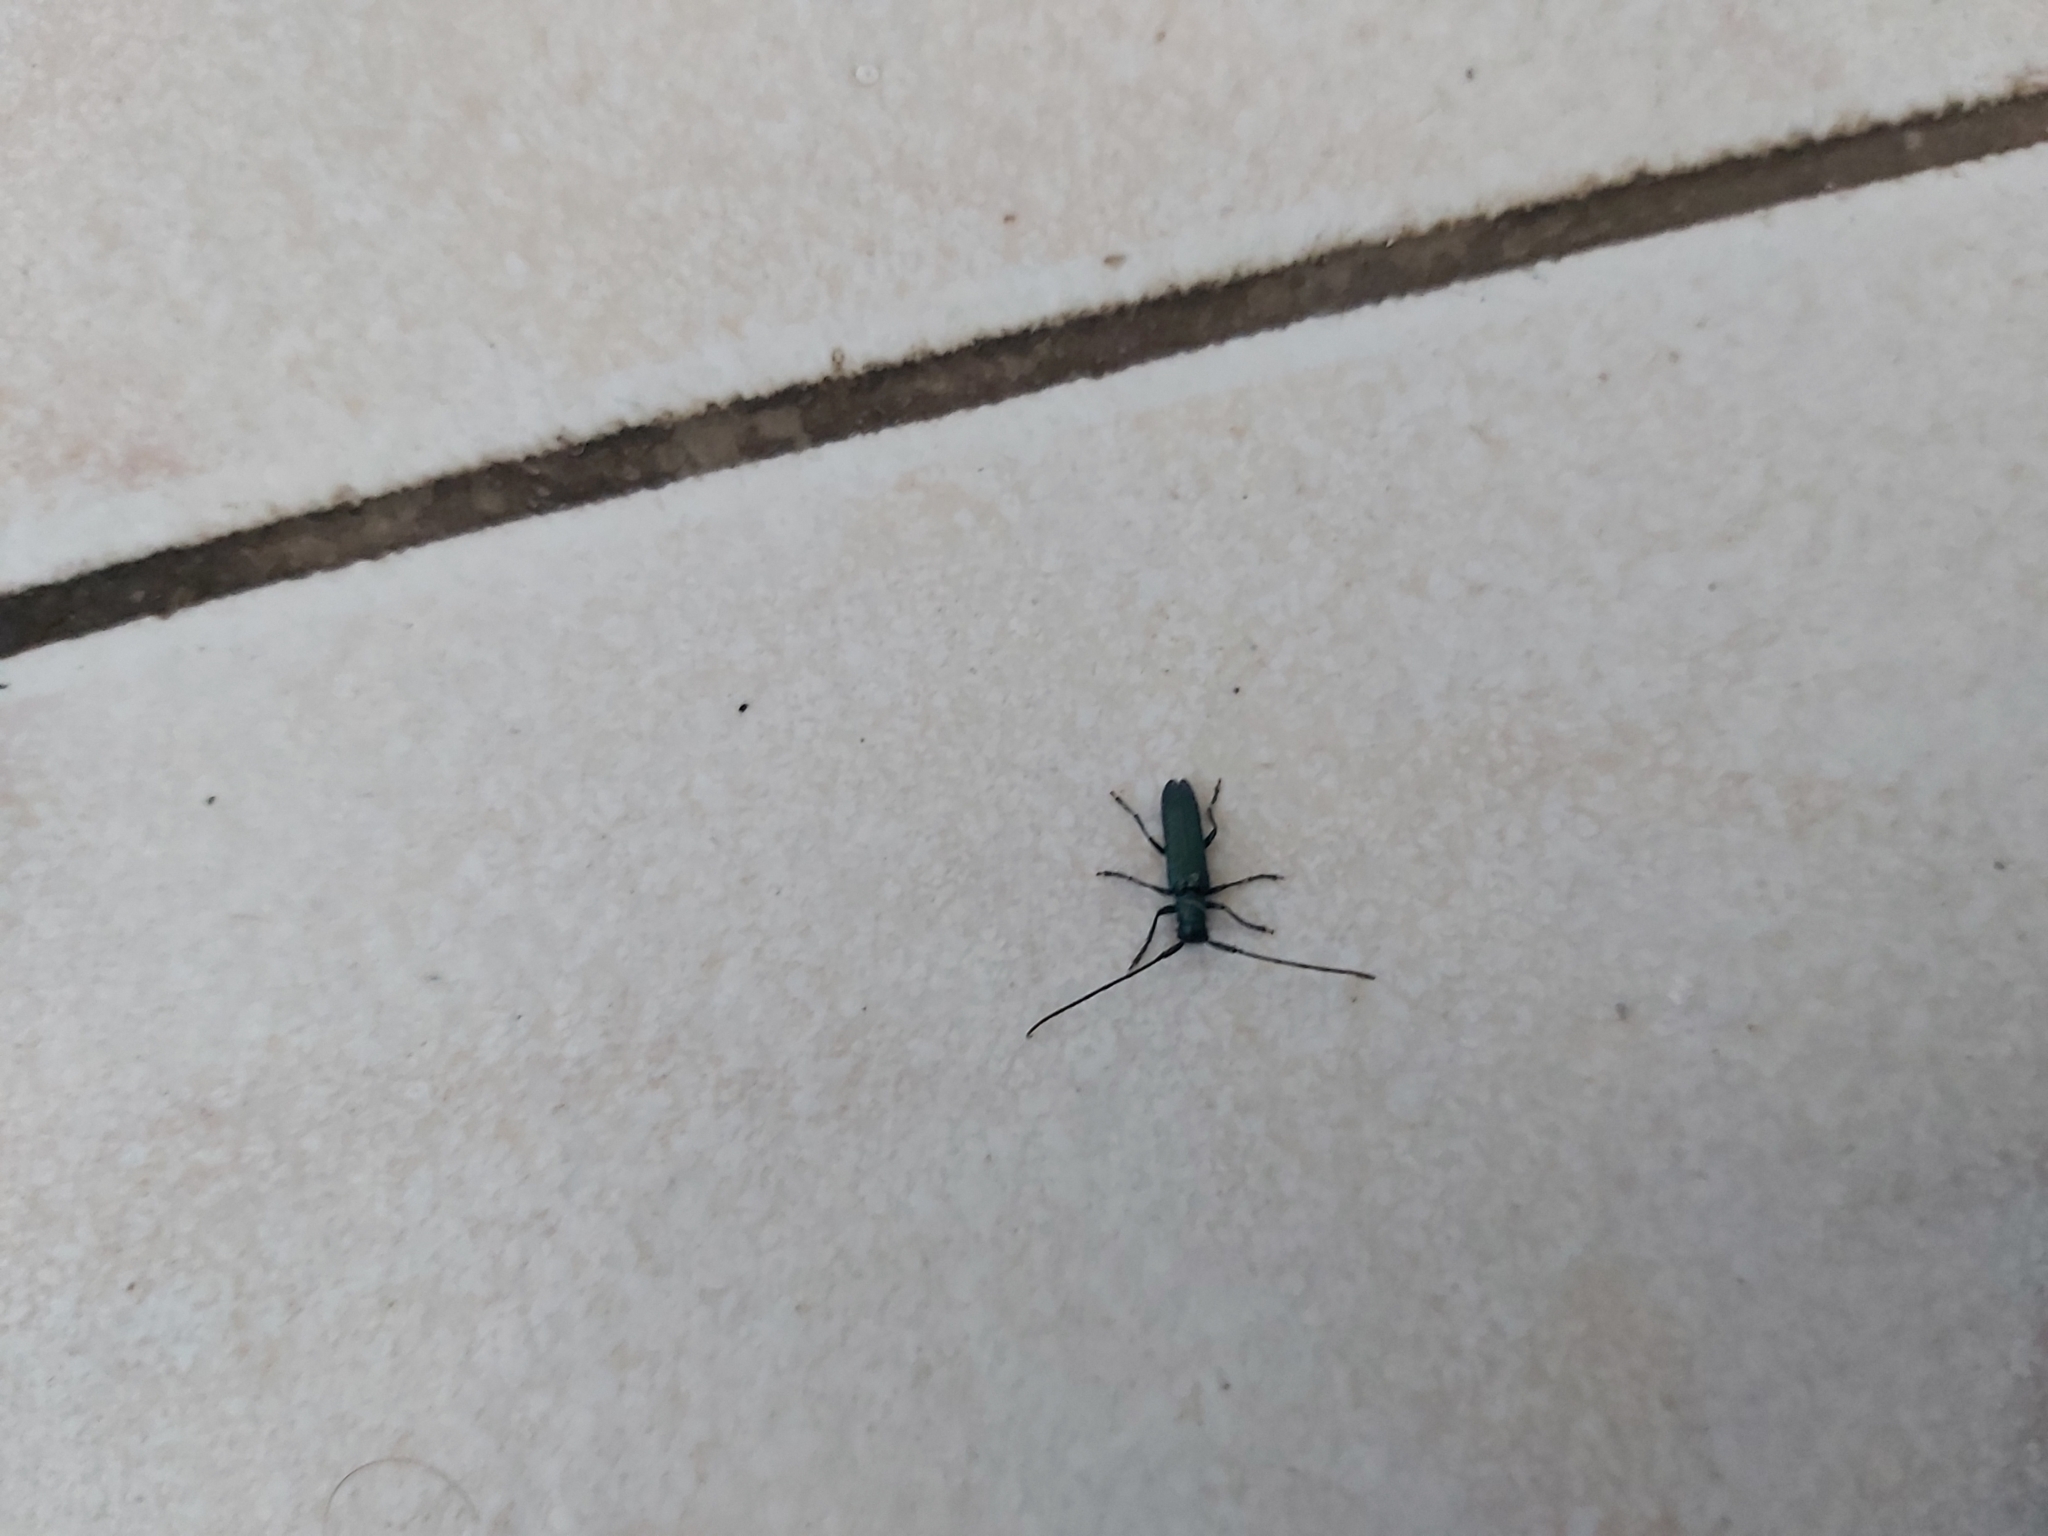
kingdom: Animalia
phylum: Arthropoda
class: Insecta
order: Coleoptera
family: Cerambycidae
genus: Agapanthia
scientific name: Agapanthia intermedia
